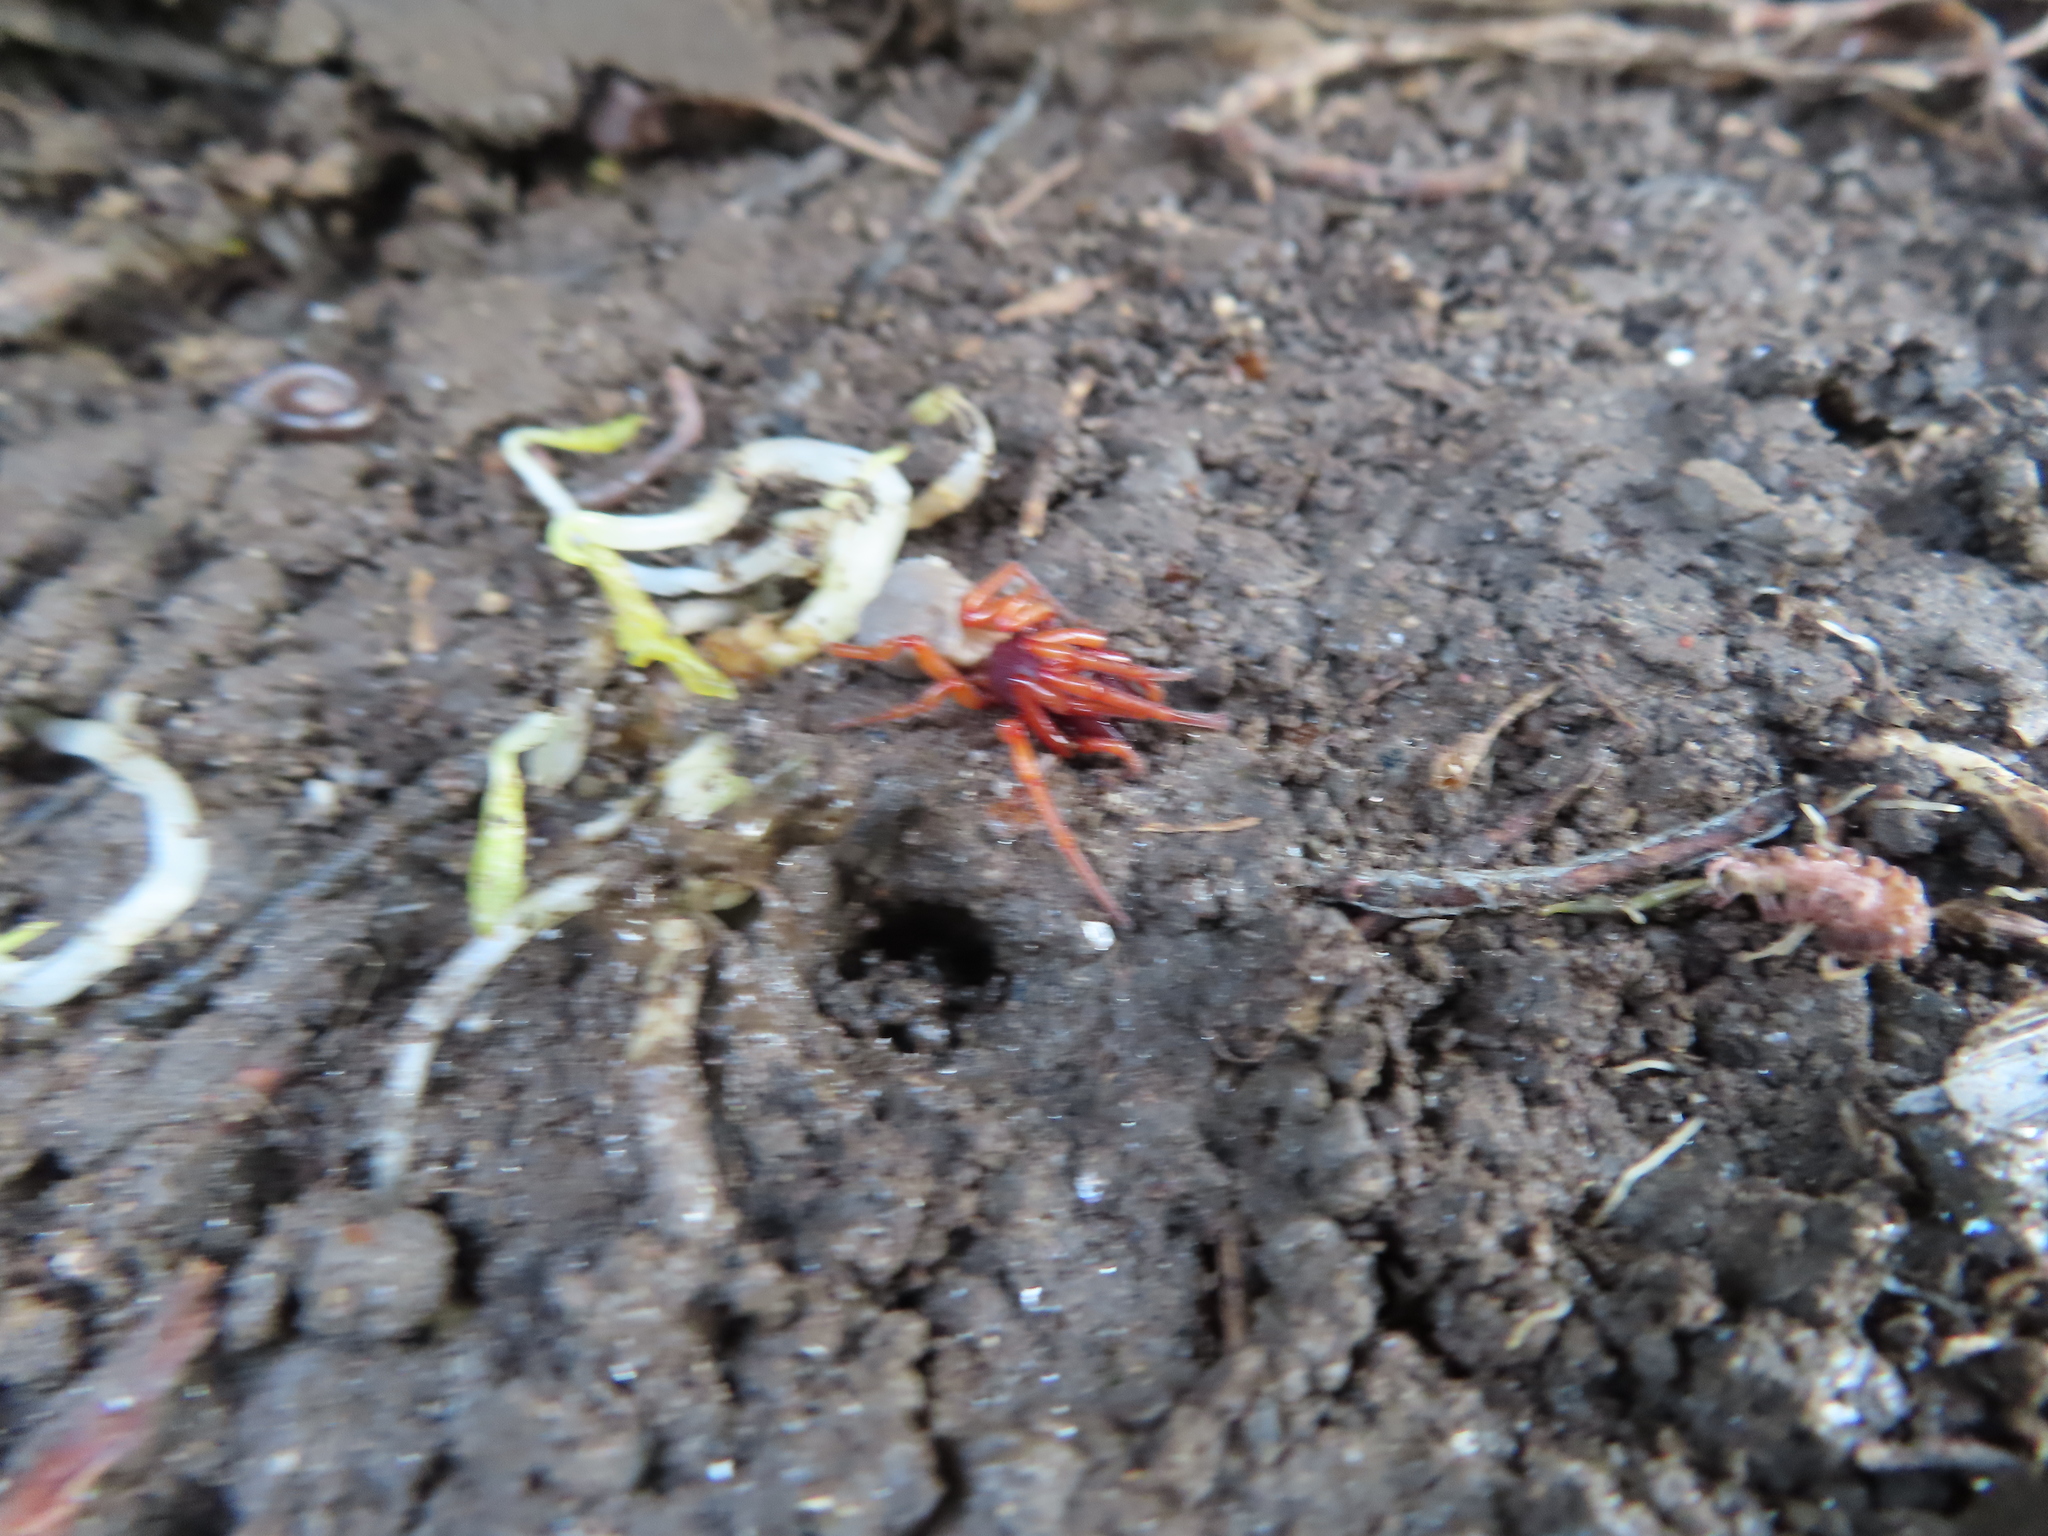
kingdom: Animalia
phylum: Arthropoda
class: Arachnida
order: Araneae
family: Dysderidae
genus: Dysdera
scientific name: Dysdera crocata
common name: Woodlouse spider
